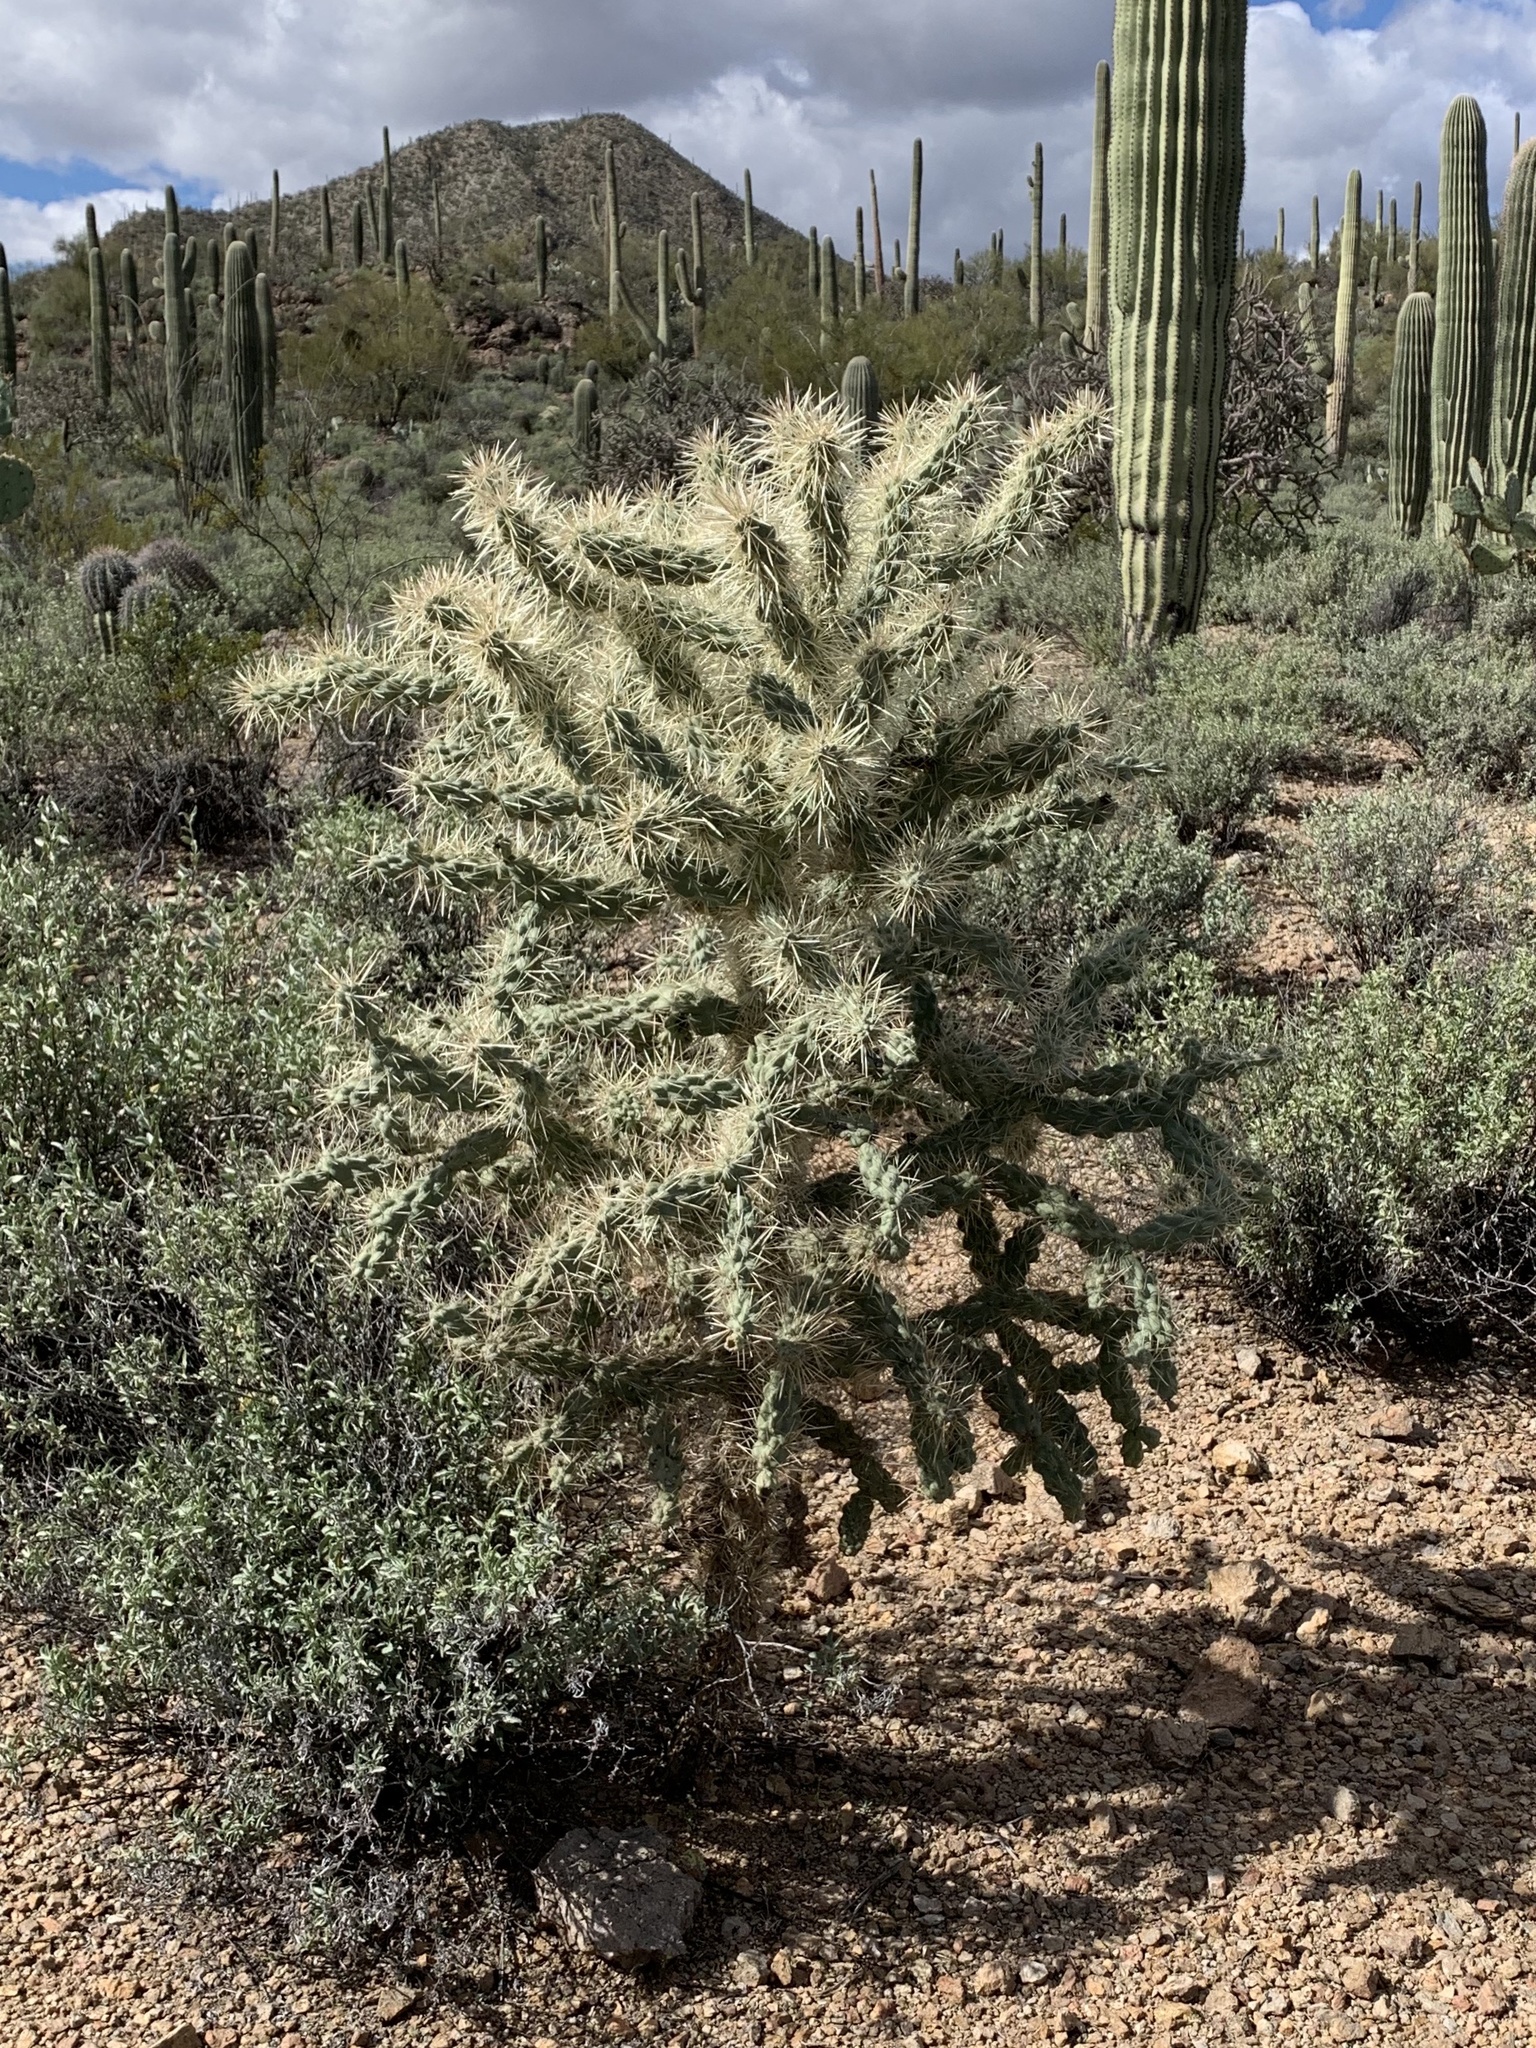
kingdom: Plantae
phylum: Tracheophyta
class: Magnoliopsida
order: Caryophyllales
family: Cactaceae
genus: Cylindropuntia
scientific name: Cylindropuntia fulgida
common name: Jumping cholla
